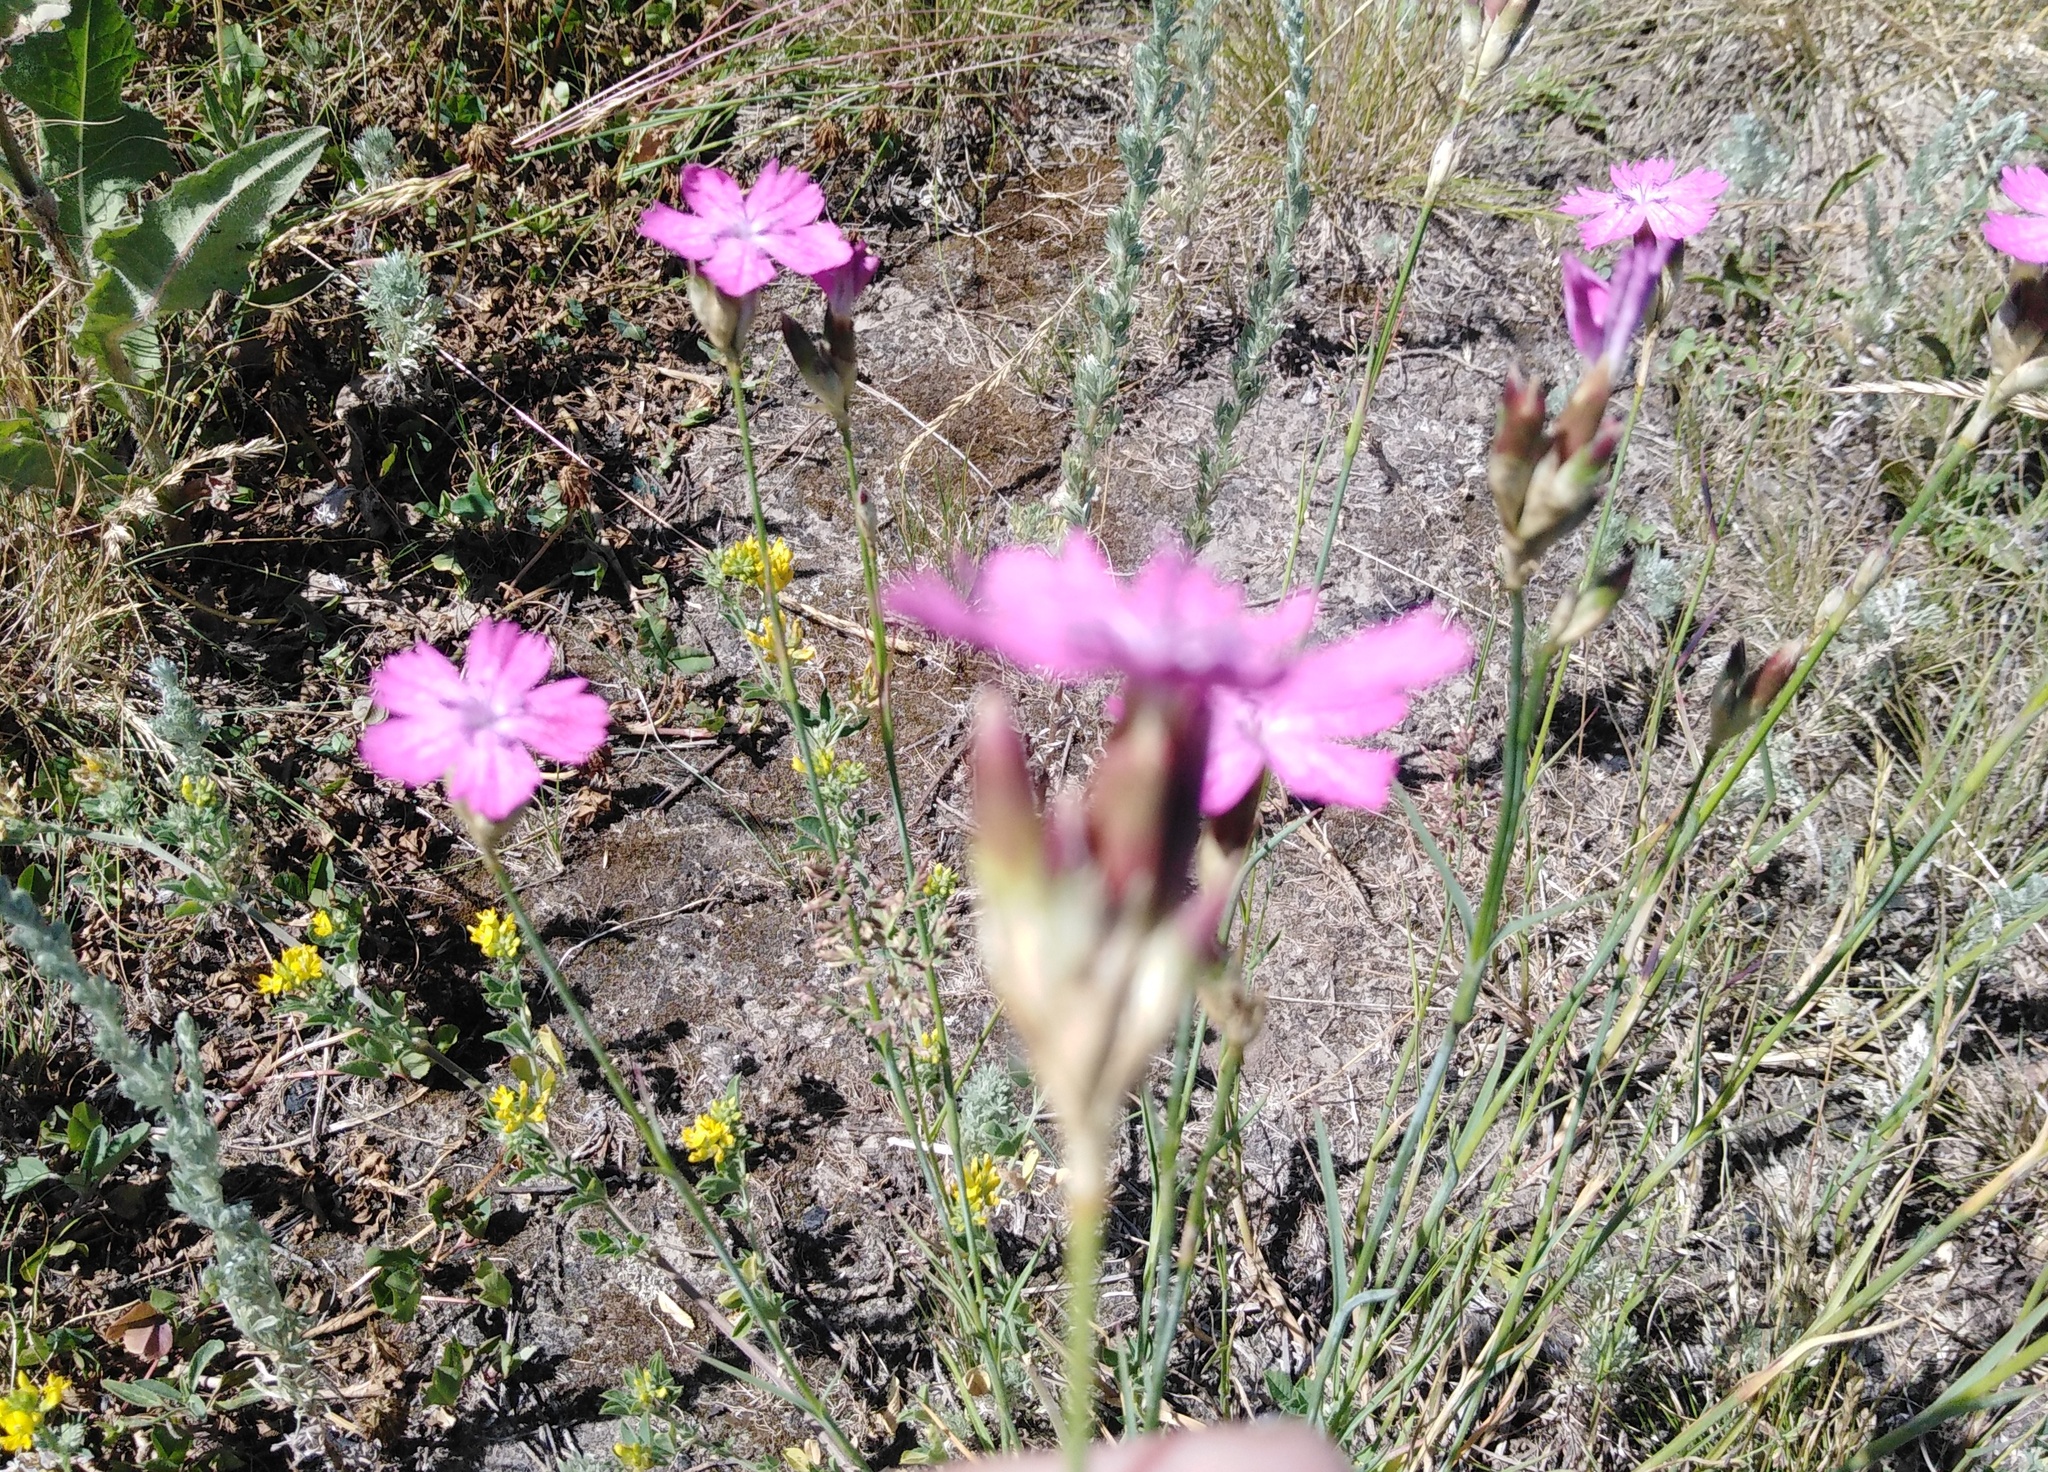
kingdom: Plantae
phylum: Tracheophyta
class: Magnoliopsida
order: Caryophyllales
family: Caryophyllaceae
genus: Dianthus
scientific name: Dianthus borbasii
